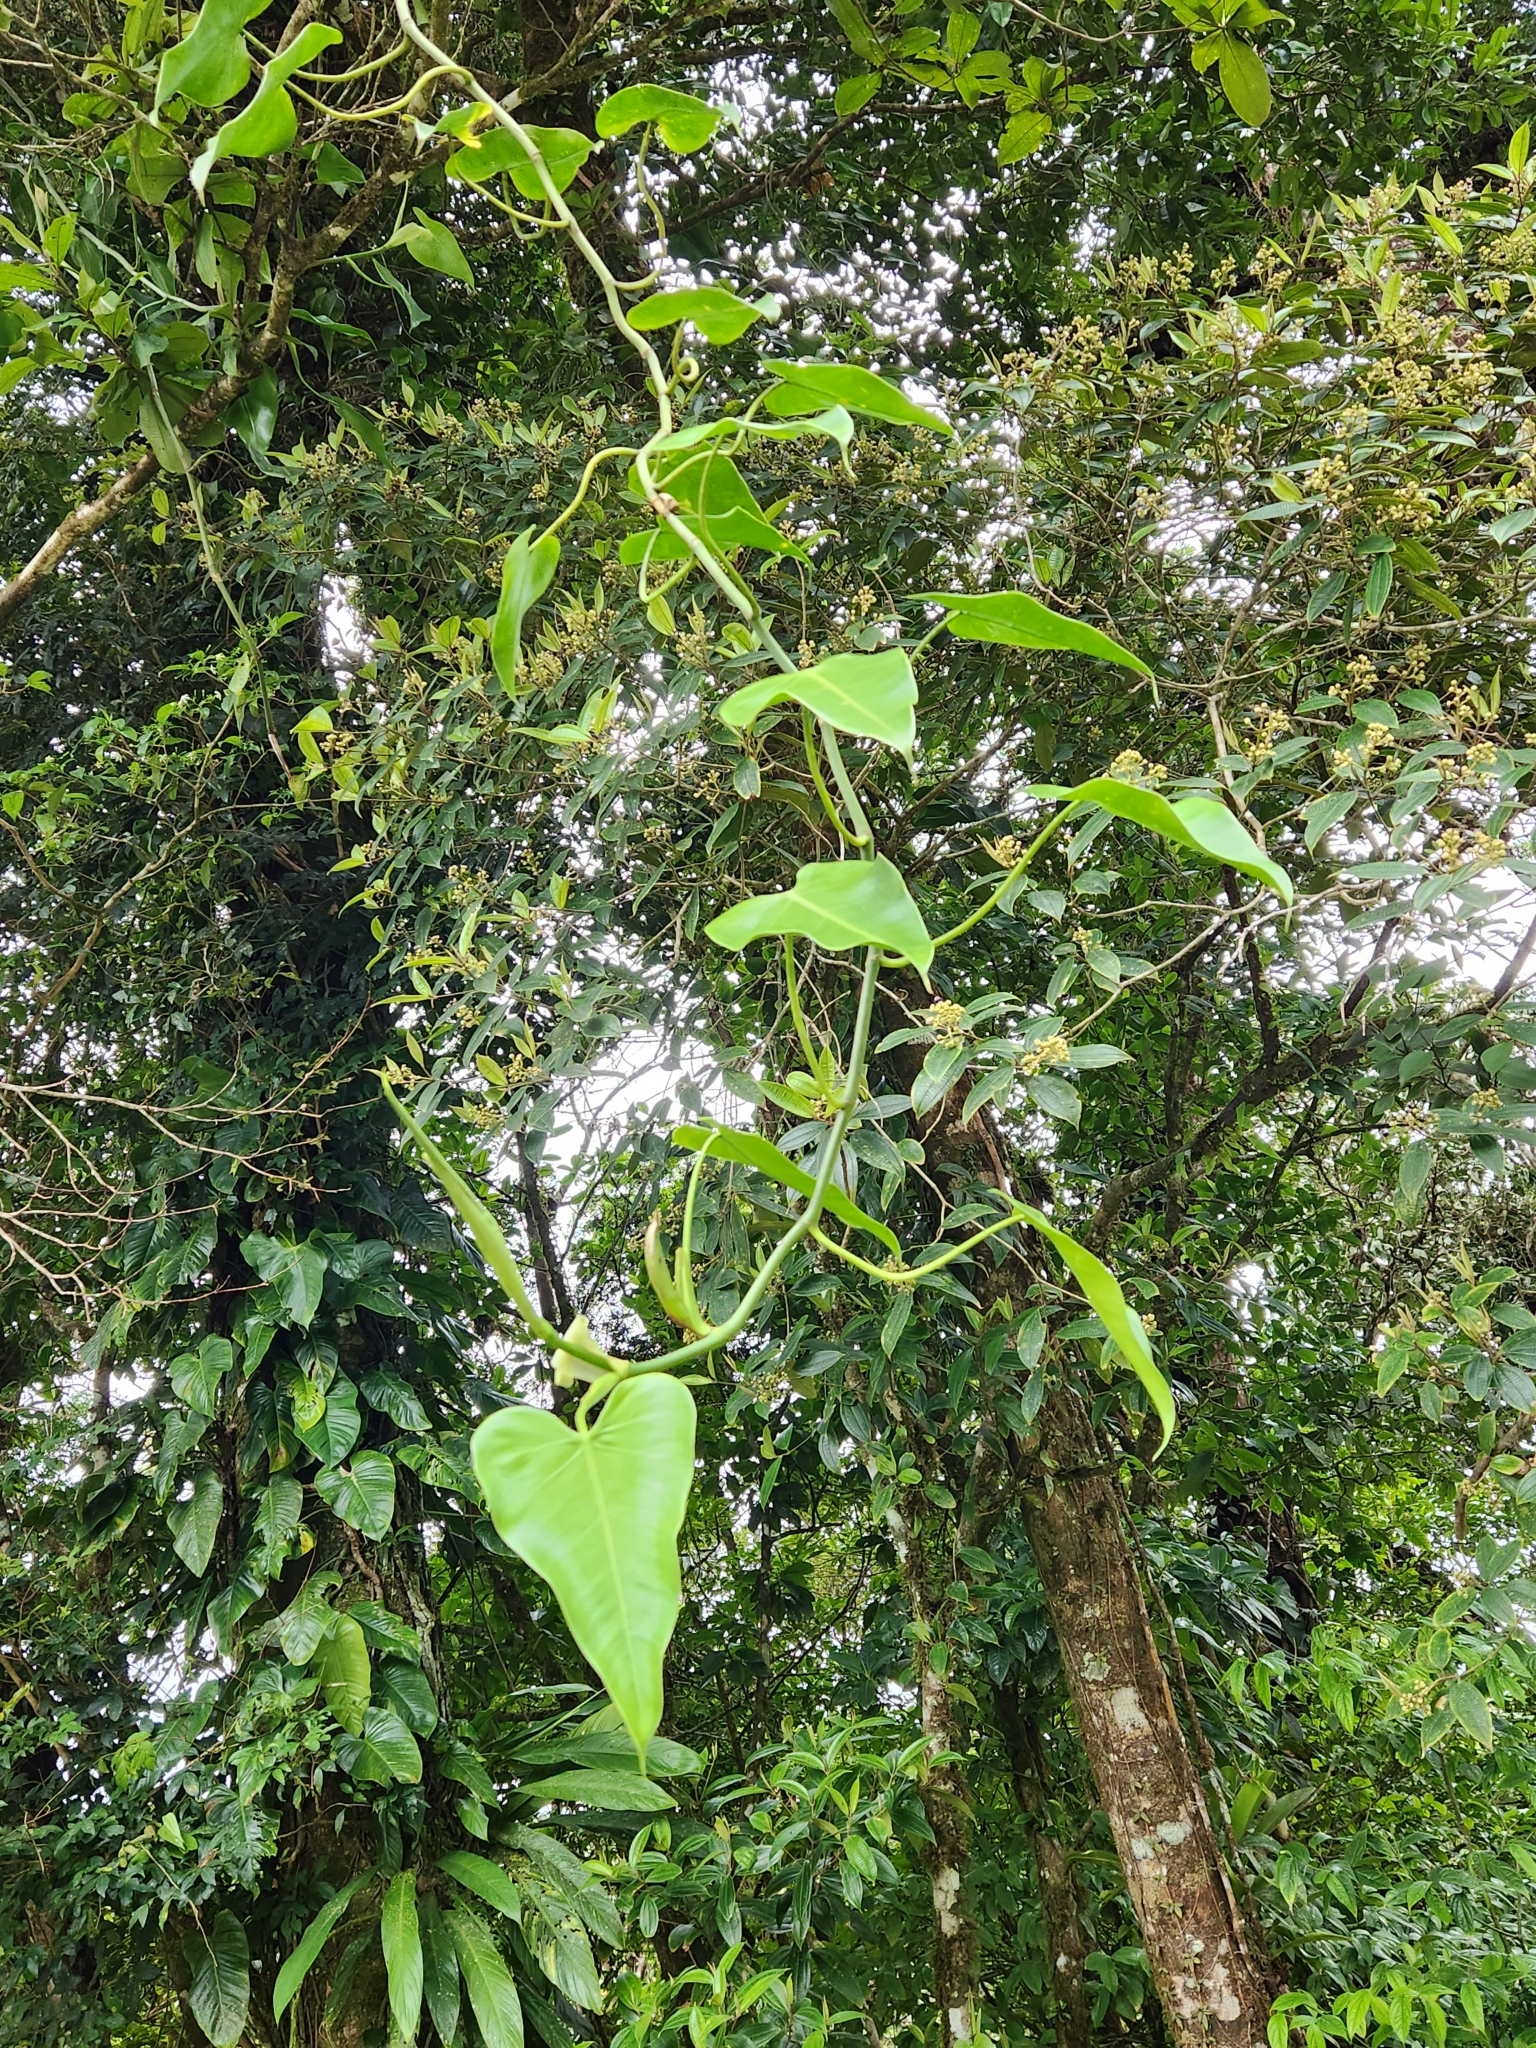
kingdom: Plantae
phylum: Tracheophyta
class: Liliopsida
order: Alismatales
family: Araceae
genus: Philodendron
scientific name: Philodendron hederaceum
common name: Vilevine
